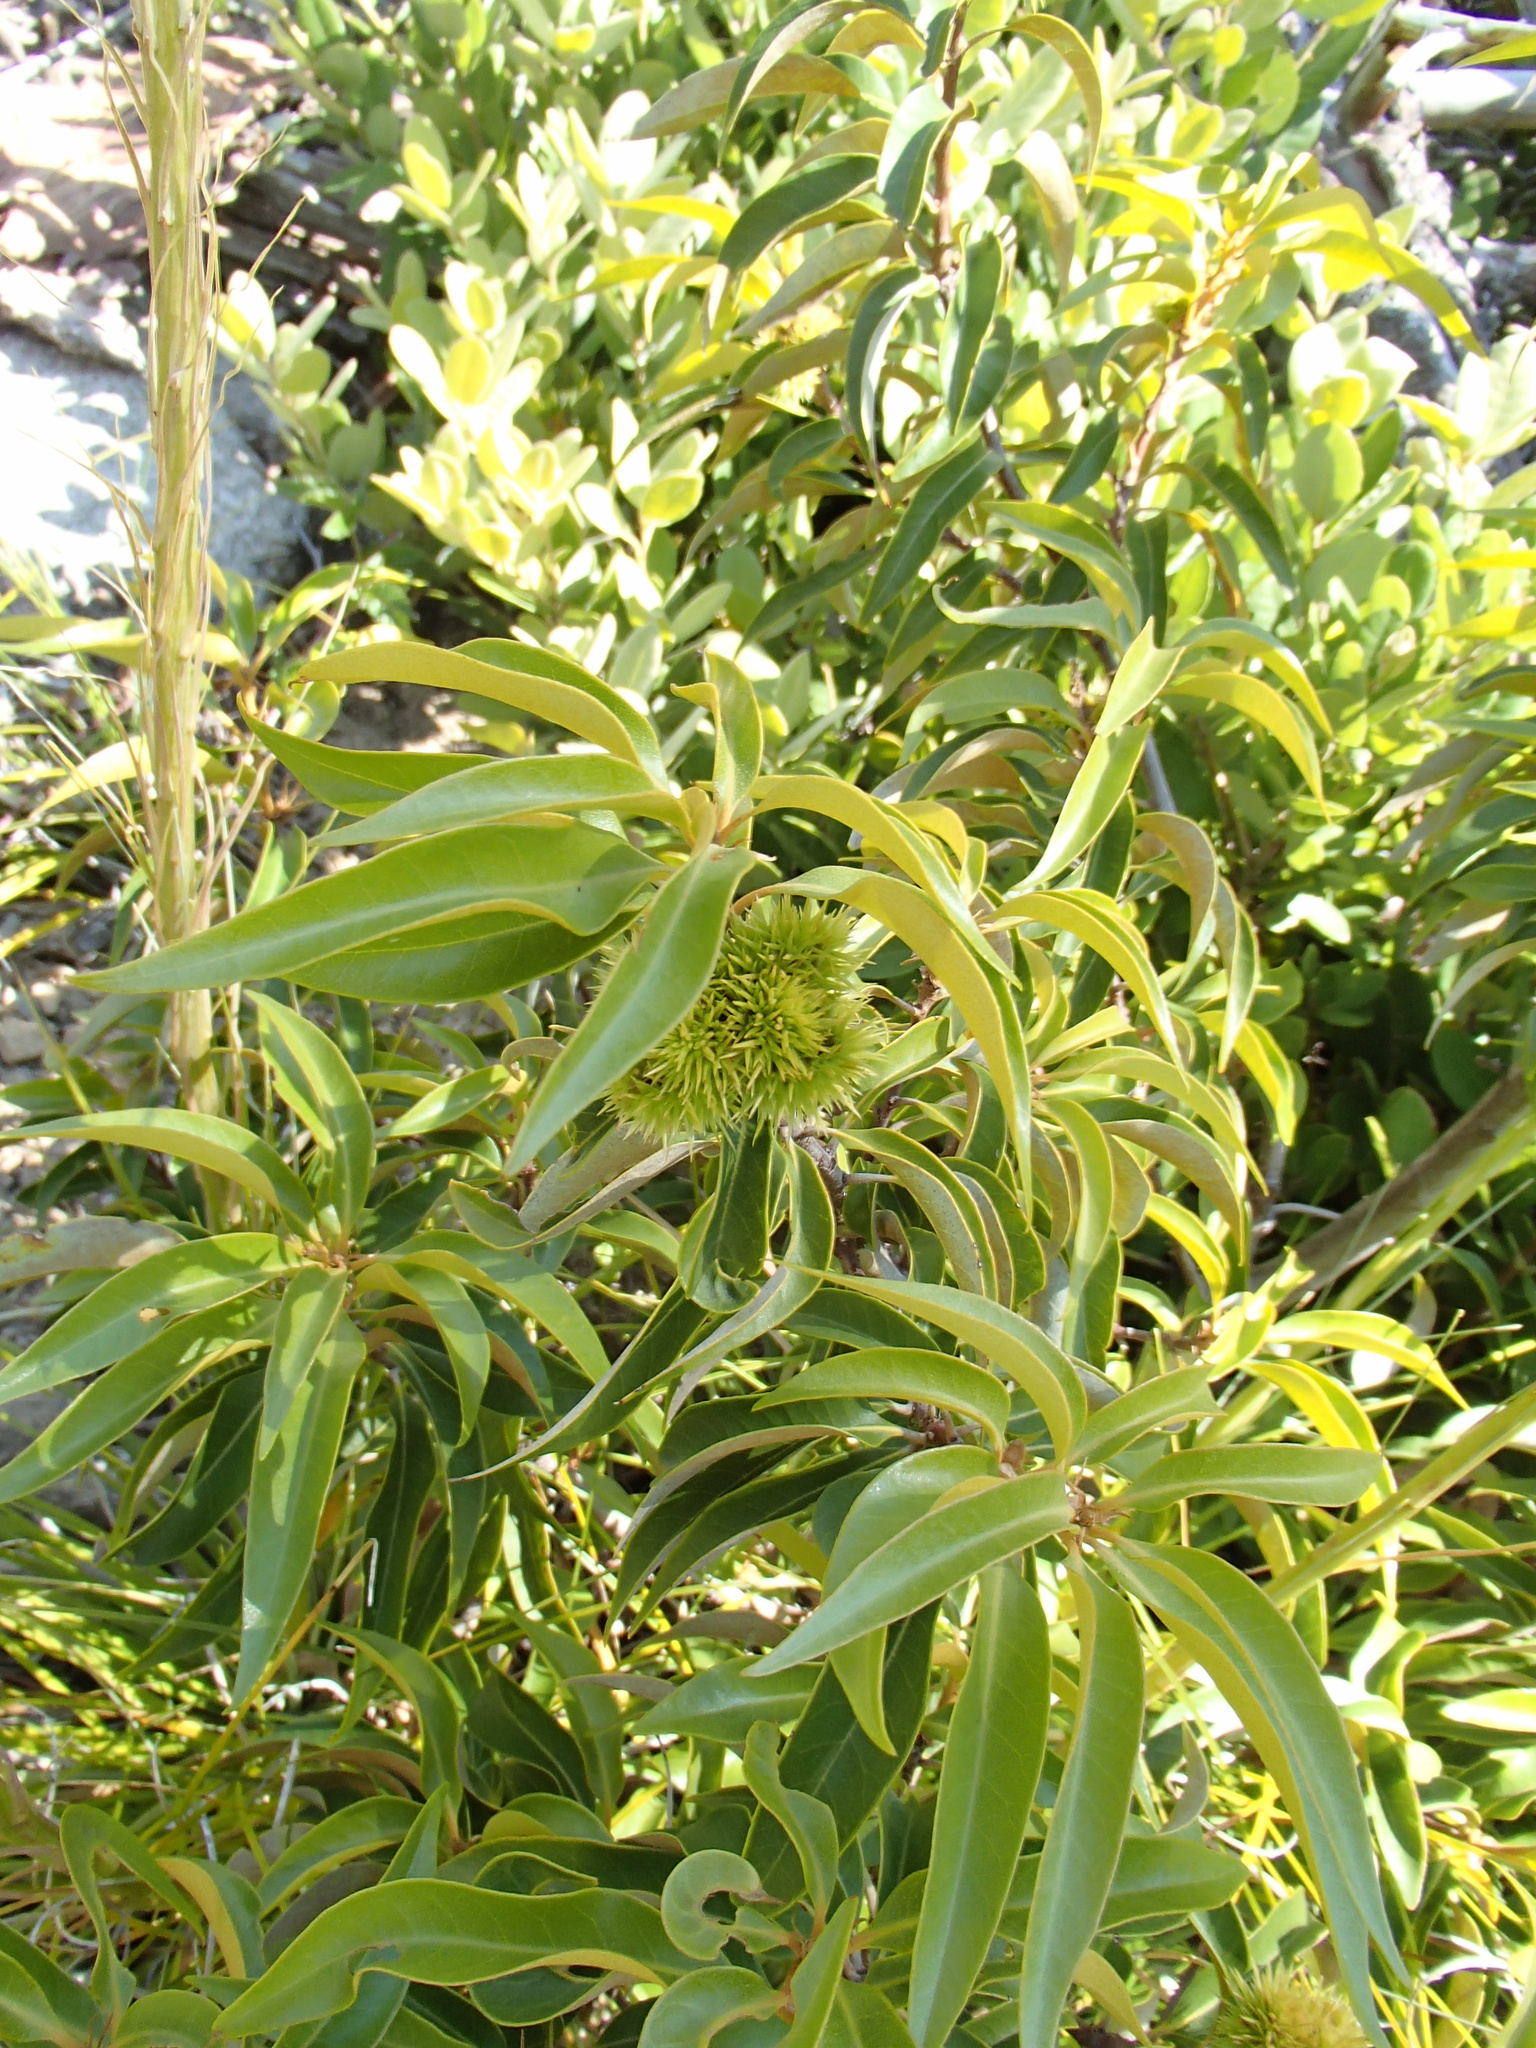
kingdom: Plantae
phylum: Tracheophyta
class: Magnoliopsida
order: Fagales
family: Fagaceae
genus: Chrysolepis
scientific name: Chrysolepis chrysophylla
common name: Giant chinquapin
